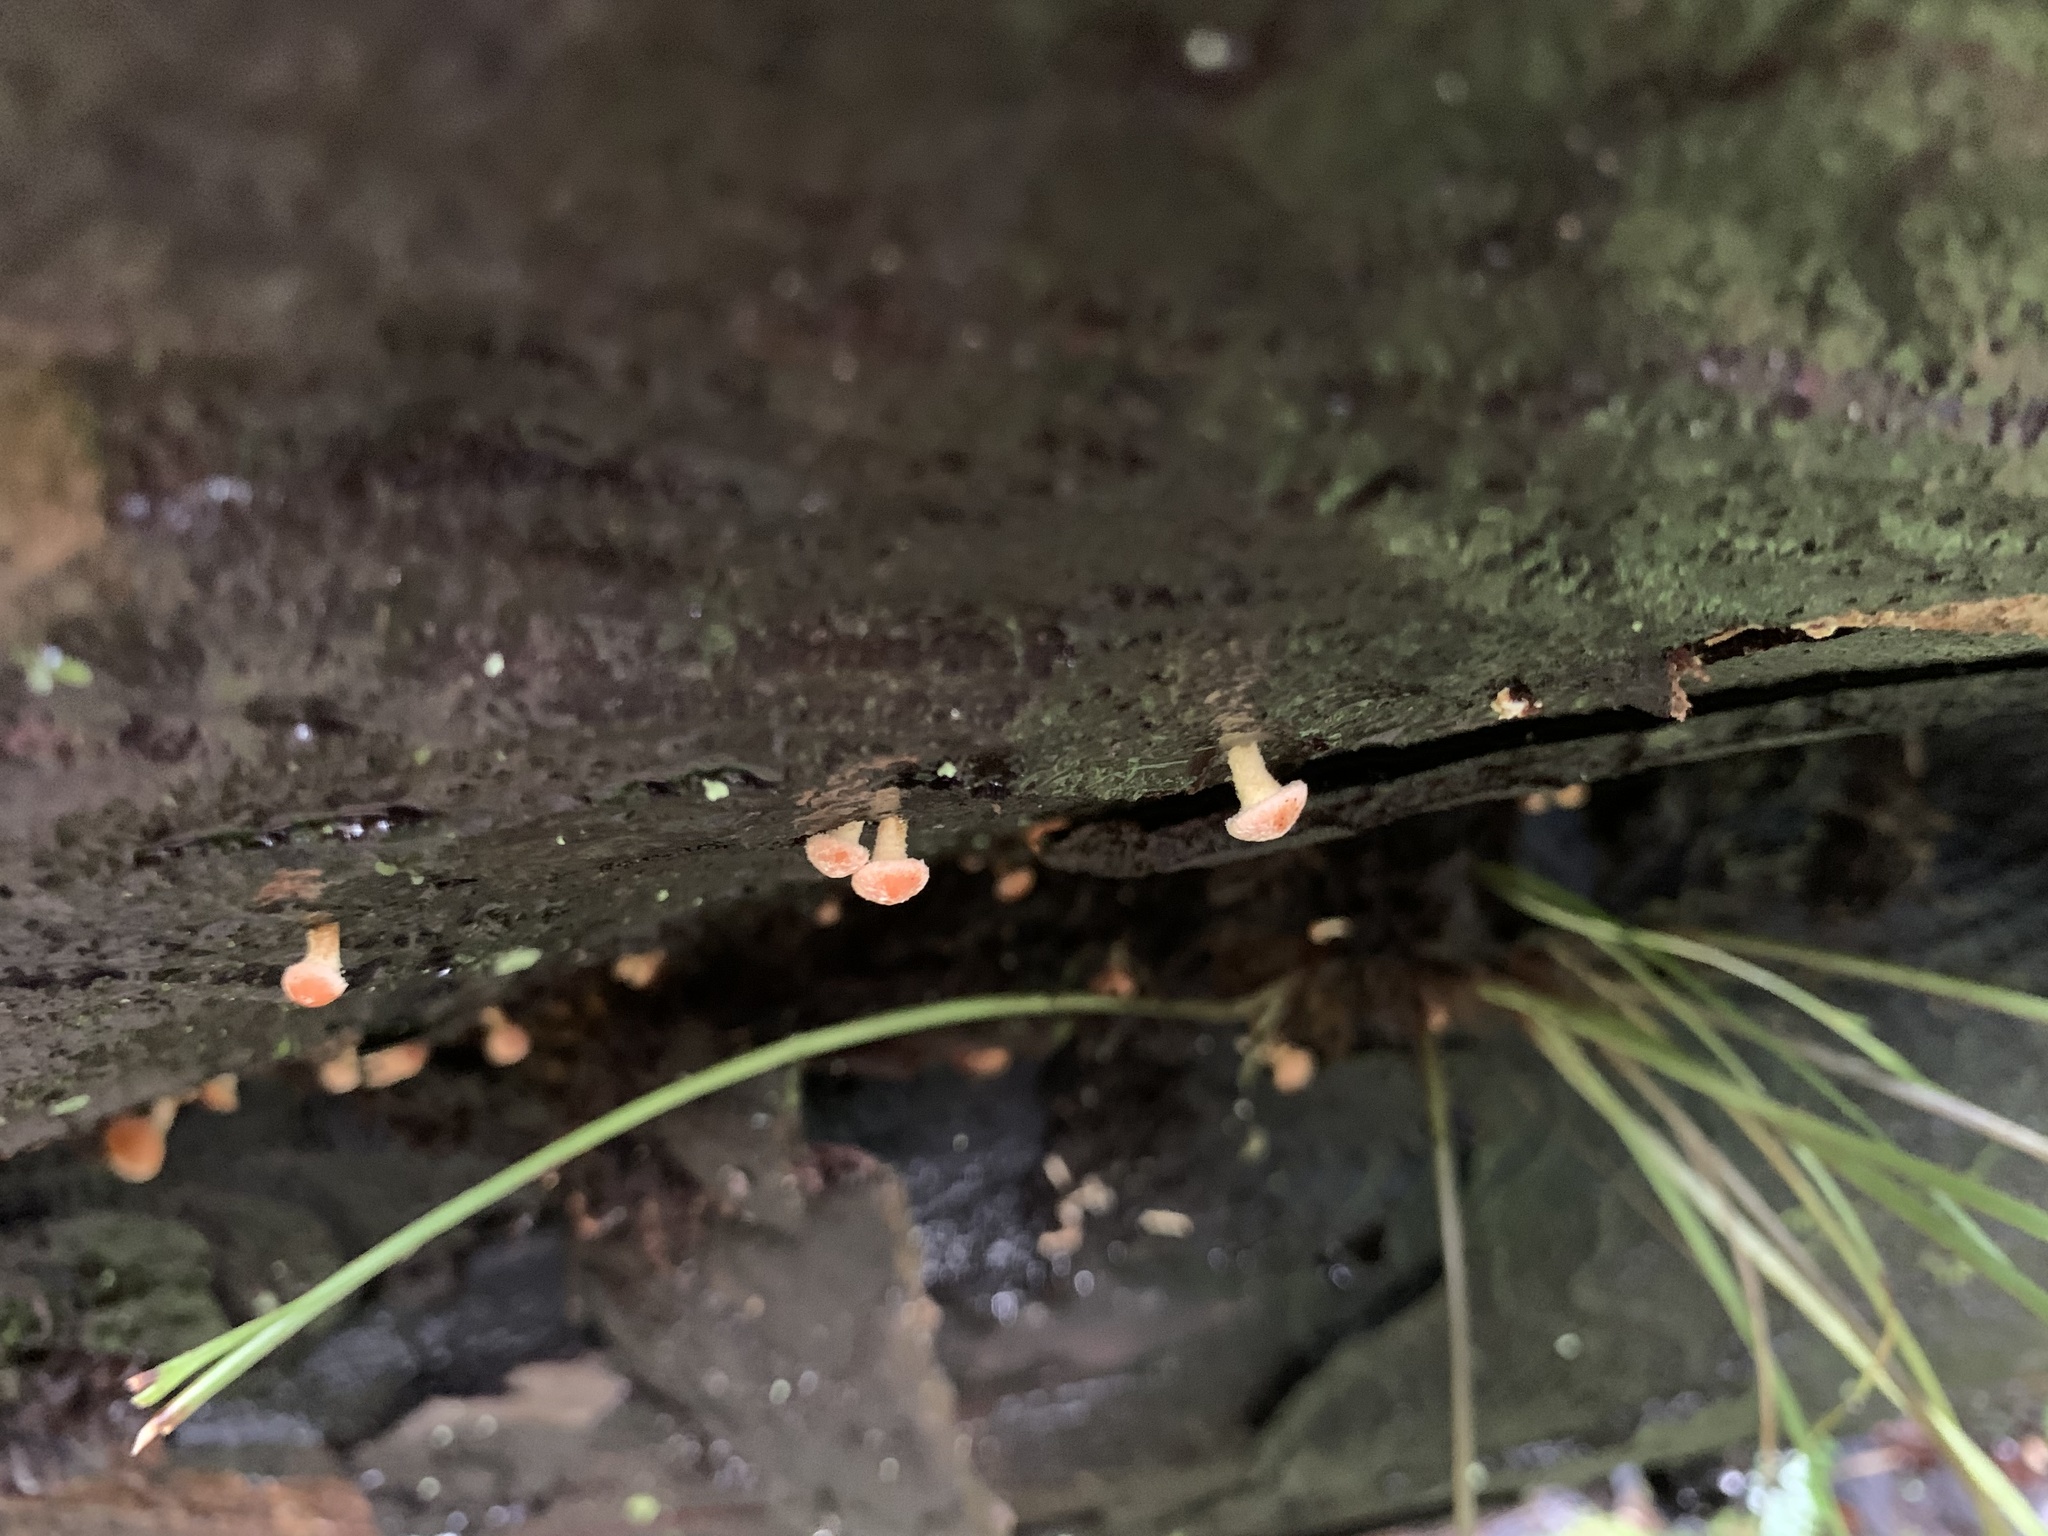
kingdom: Fungi
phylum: Basidiomycota
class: Agaricomycetes
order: Agaricales
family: Strophariaceae
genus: Hypholoma
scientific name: Hypholoma acutum
